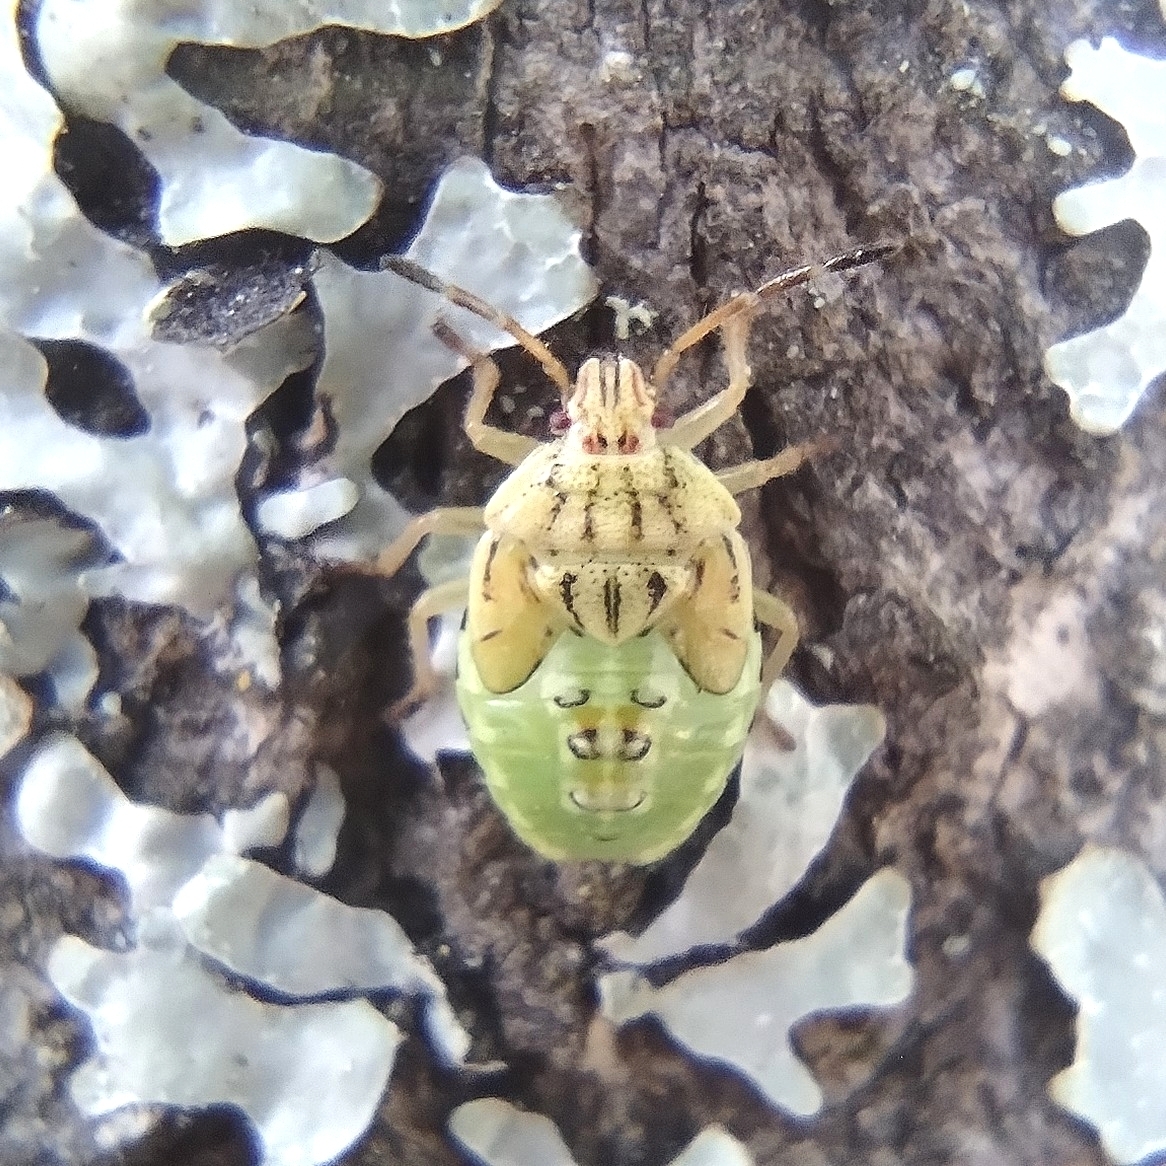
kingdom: Animalia
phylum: Arthropoda
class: Insecta
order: Hemiptera
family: Acanthosomatidae
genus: Elasmucha
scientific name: Elasmucha grisea
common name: Parent bug
